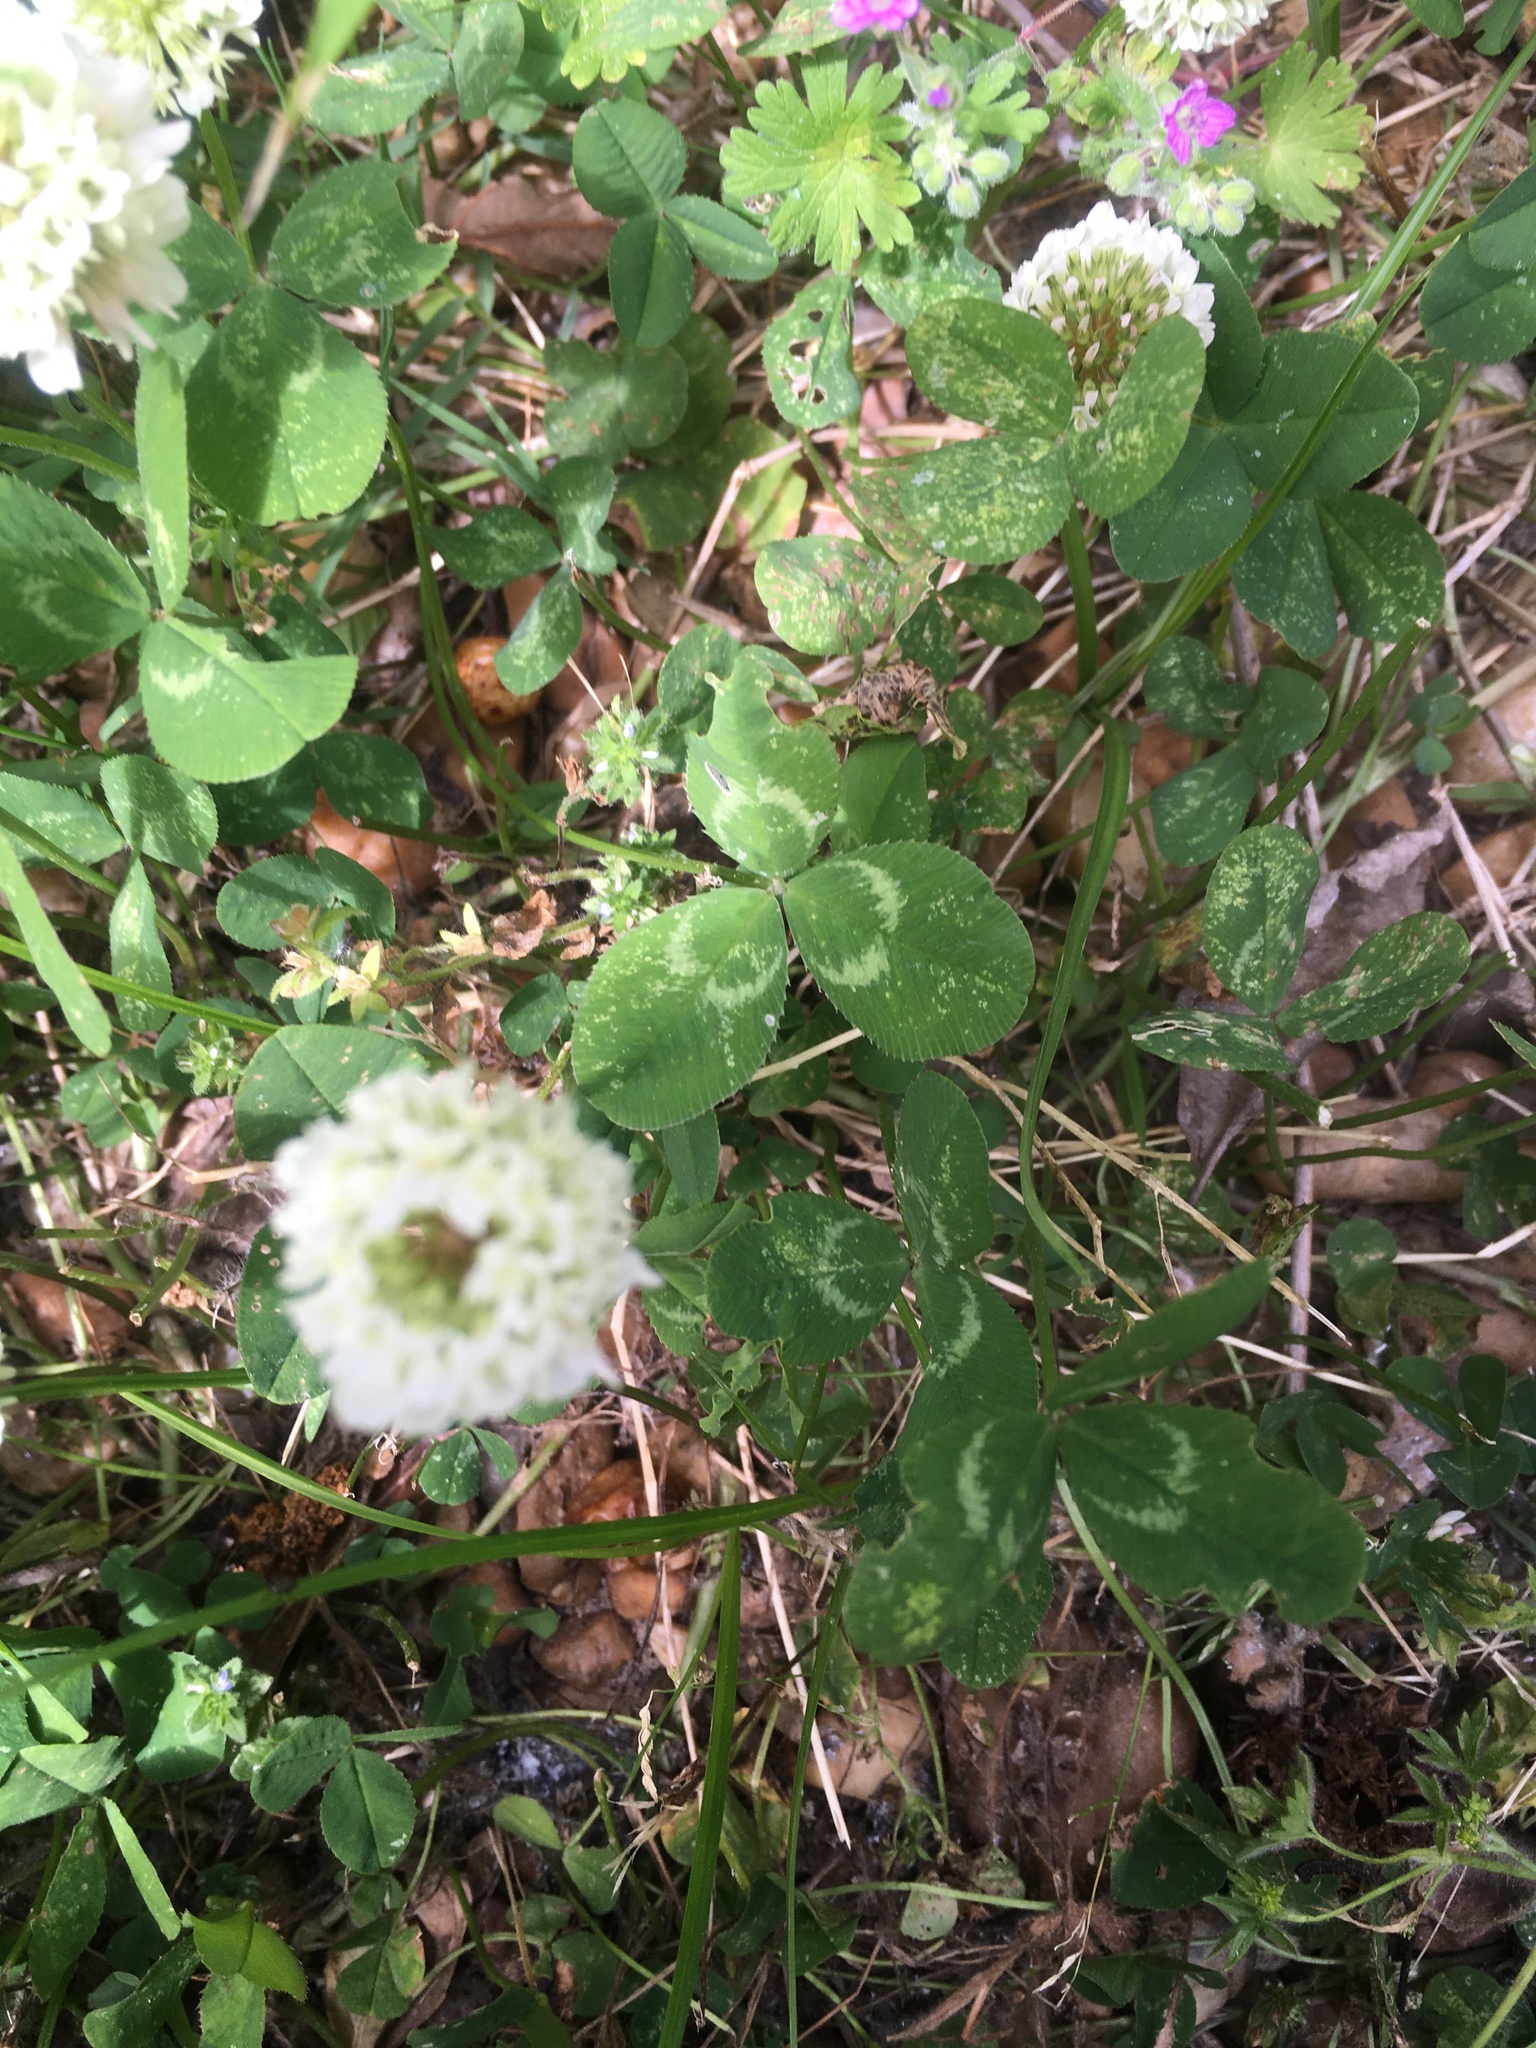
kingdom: Plantae
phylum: Tracheophyta
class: Magnoliopsida
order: Fabales
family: Fabaceae
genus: Trifolium
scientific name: Trifolium repens
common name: White clover
